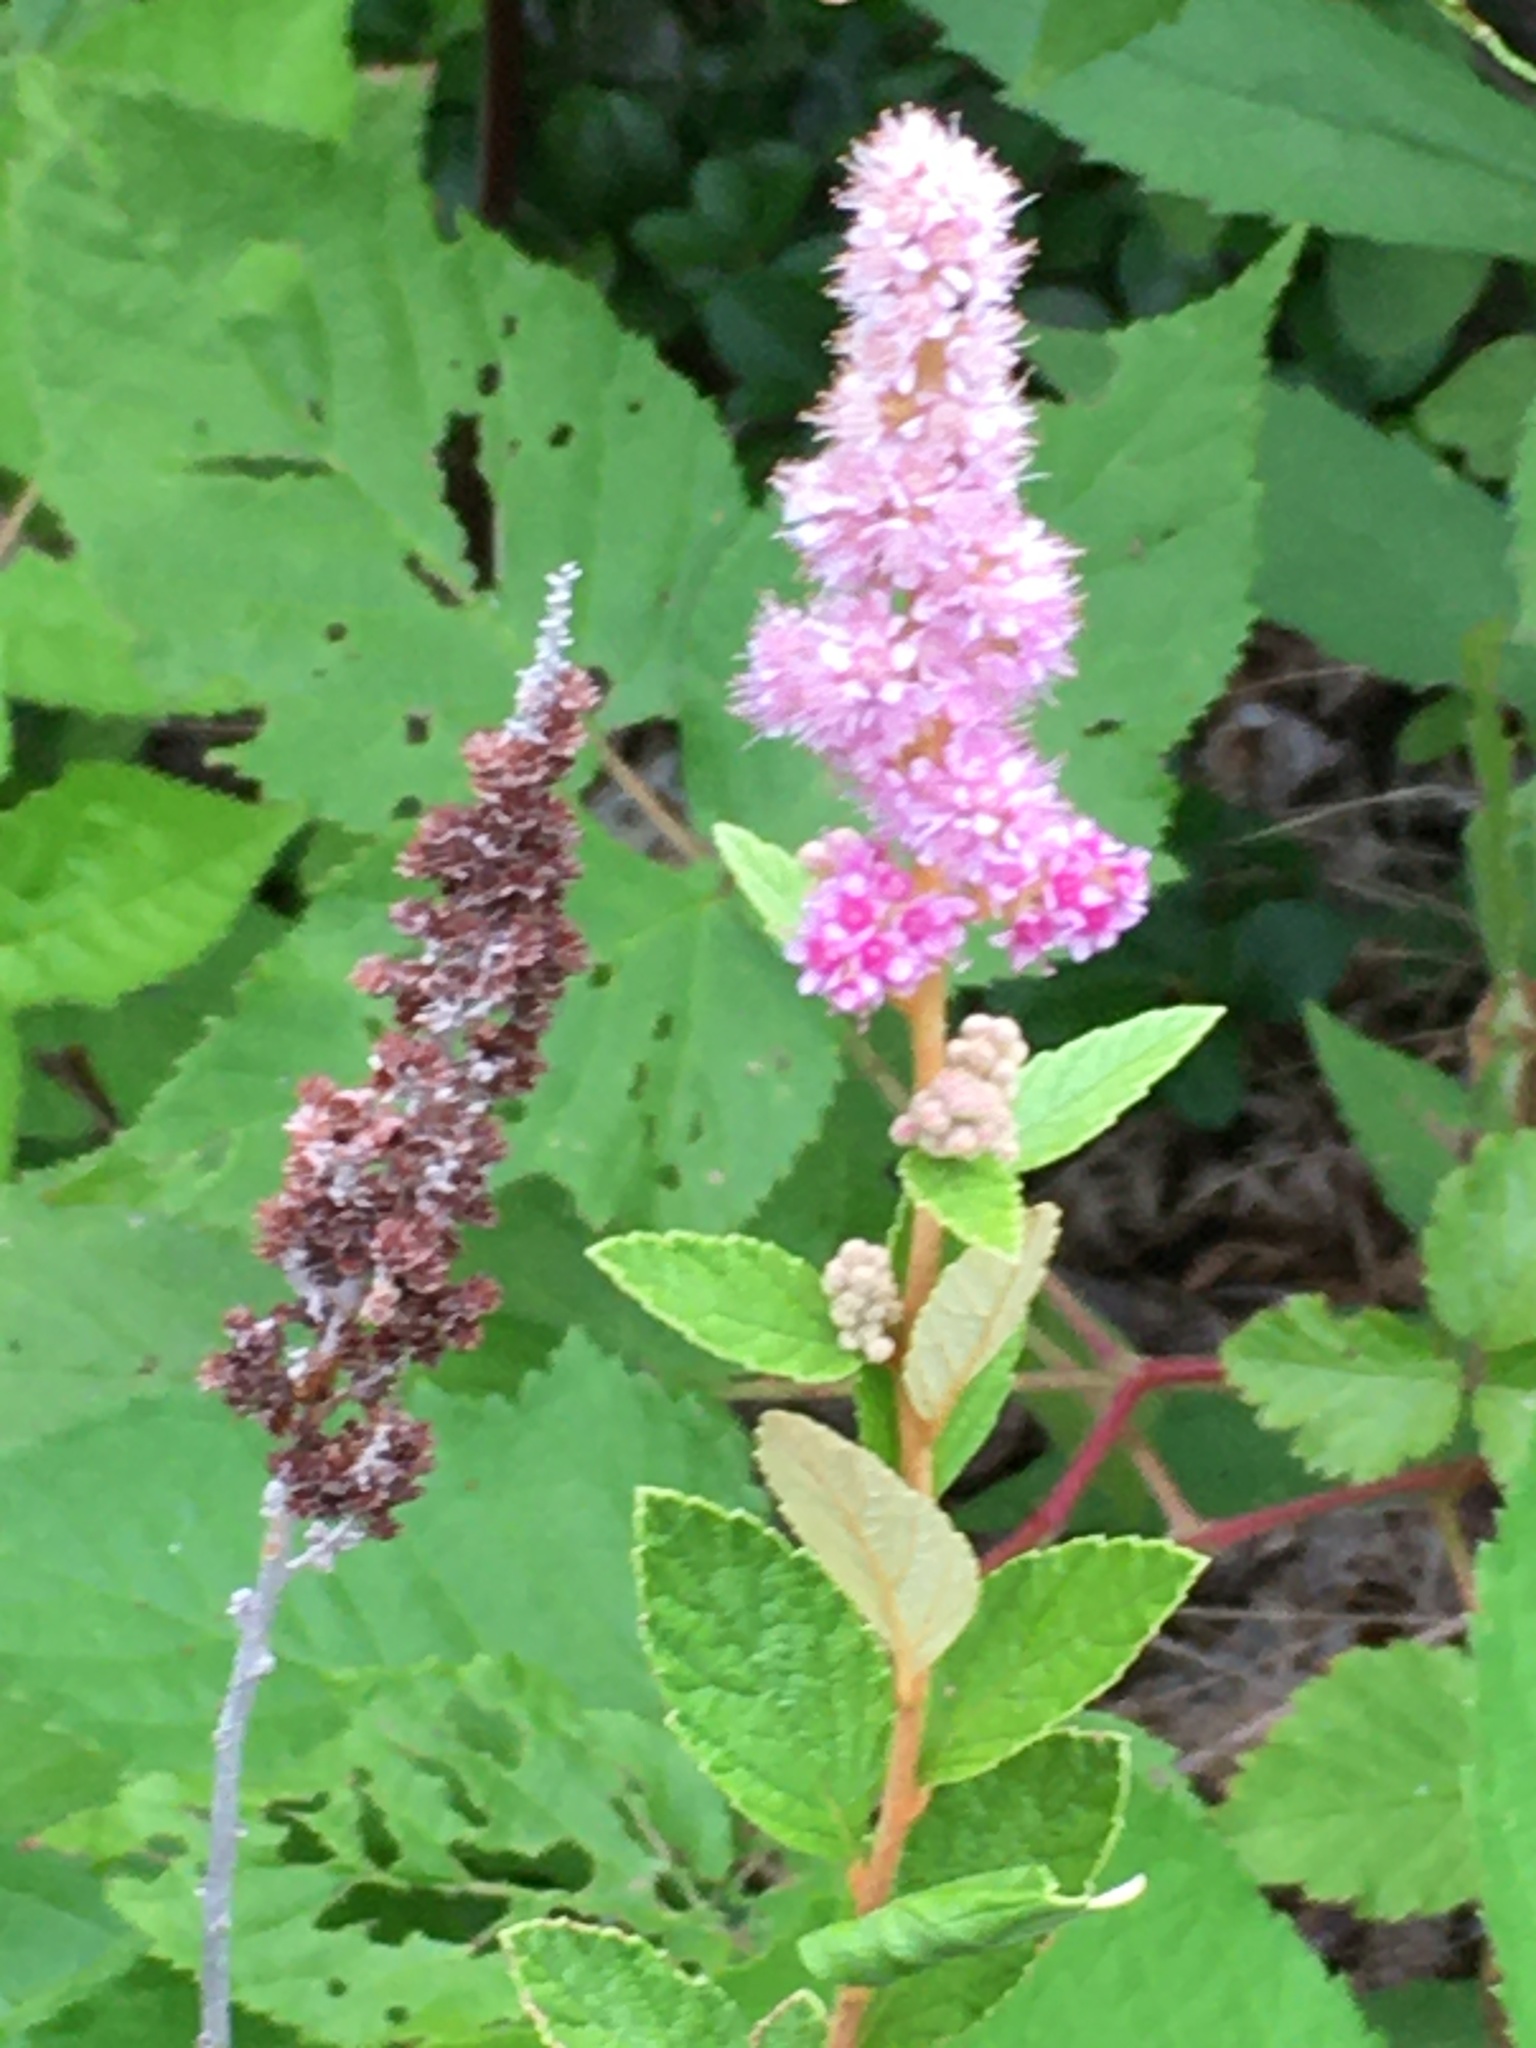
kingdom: Plantae
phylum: Tracheophyta
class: Magnoliopsida
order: Rosales
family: Rosaceae
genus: Spiraea
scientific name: Spiraea tomentosa
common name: Hardhack
